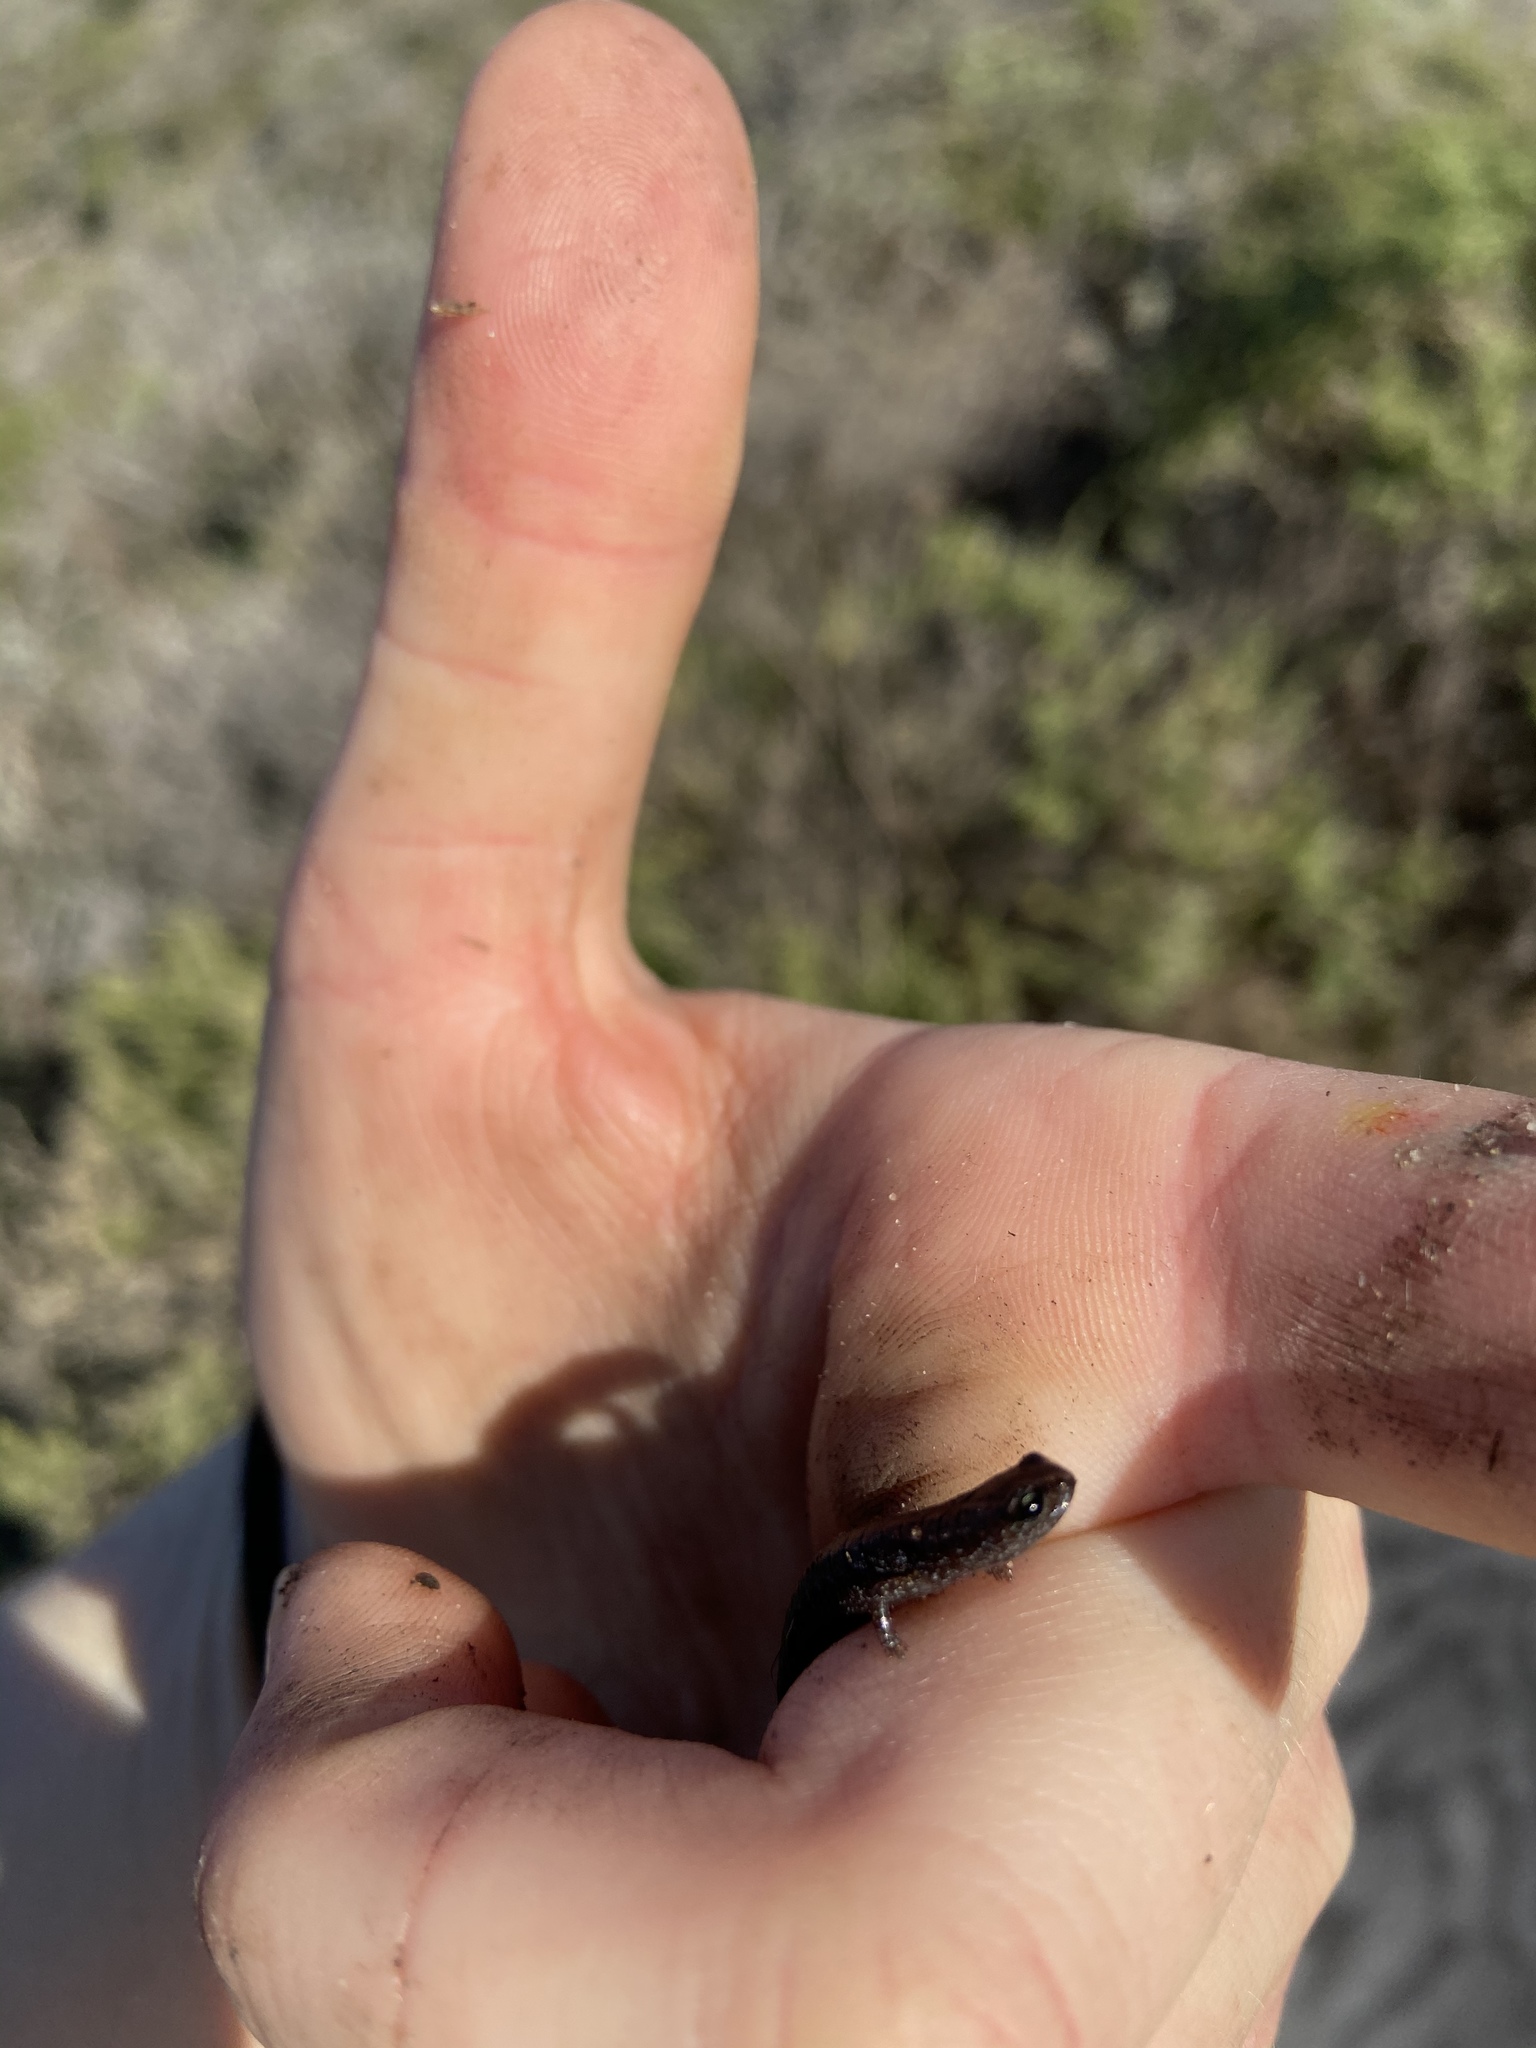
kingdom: Animalia
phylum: Chordata
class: Amphibia
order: Caudata
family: Plethodontidae
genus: Batrachoseps
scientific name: Batrachoseps attenuatus
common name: California slender salamander
